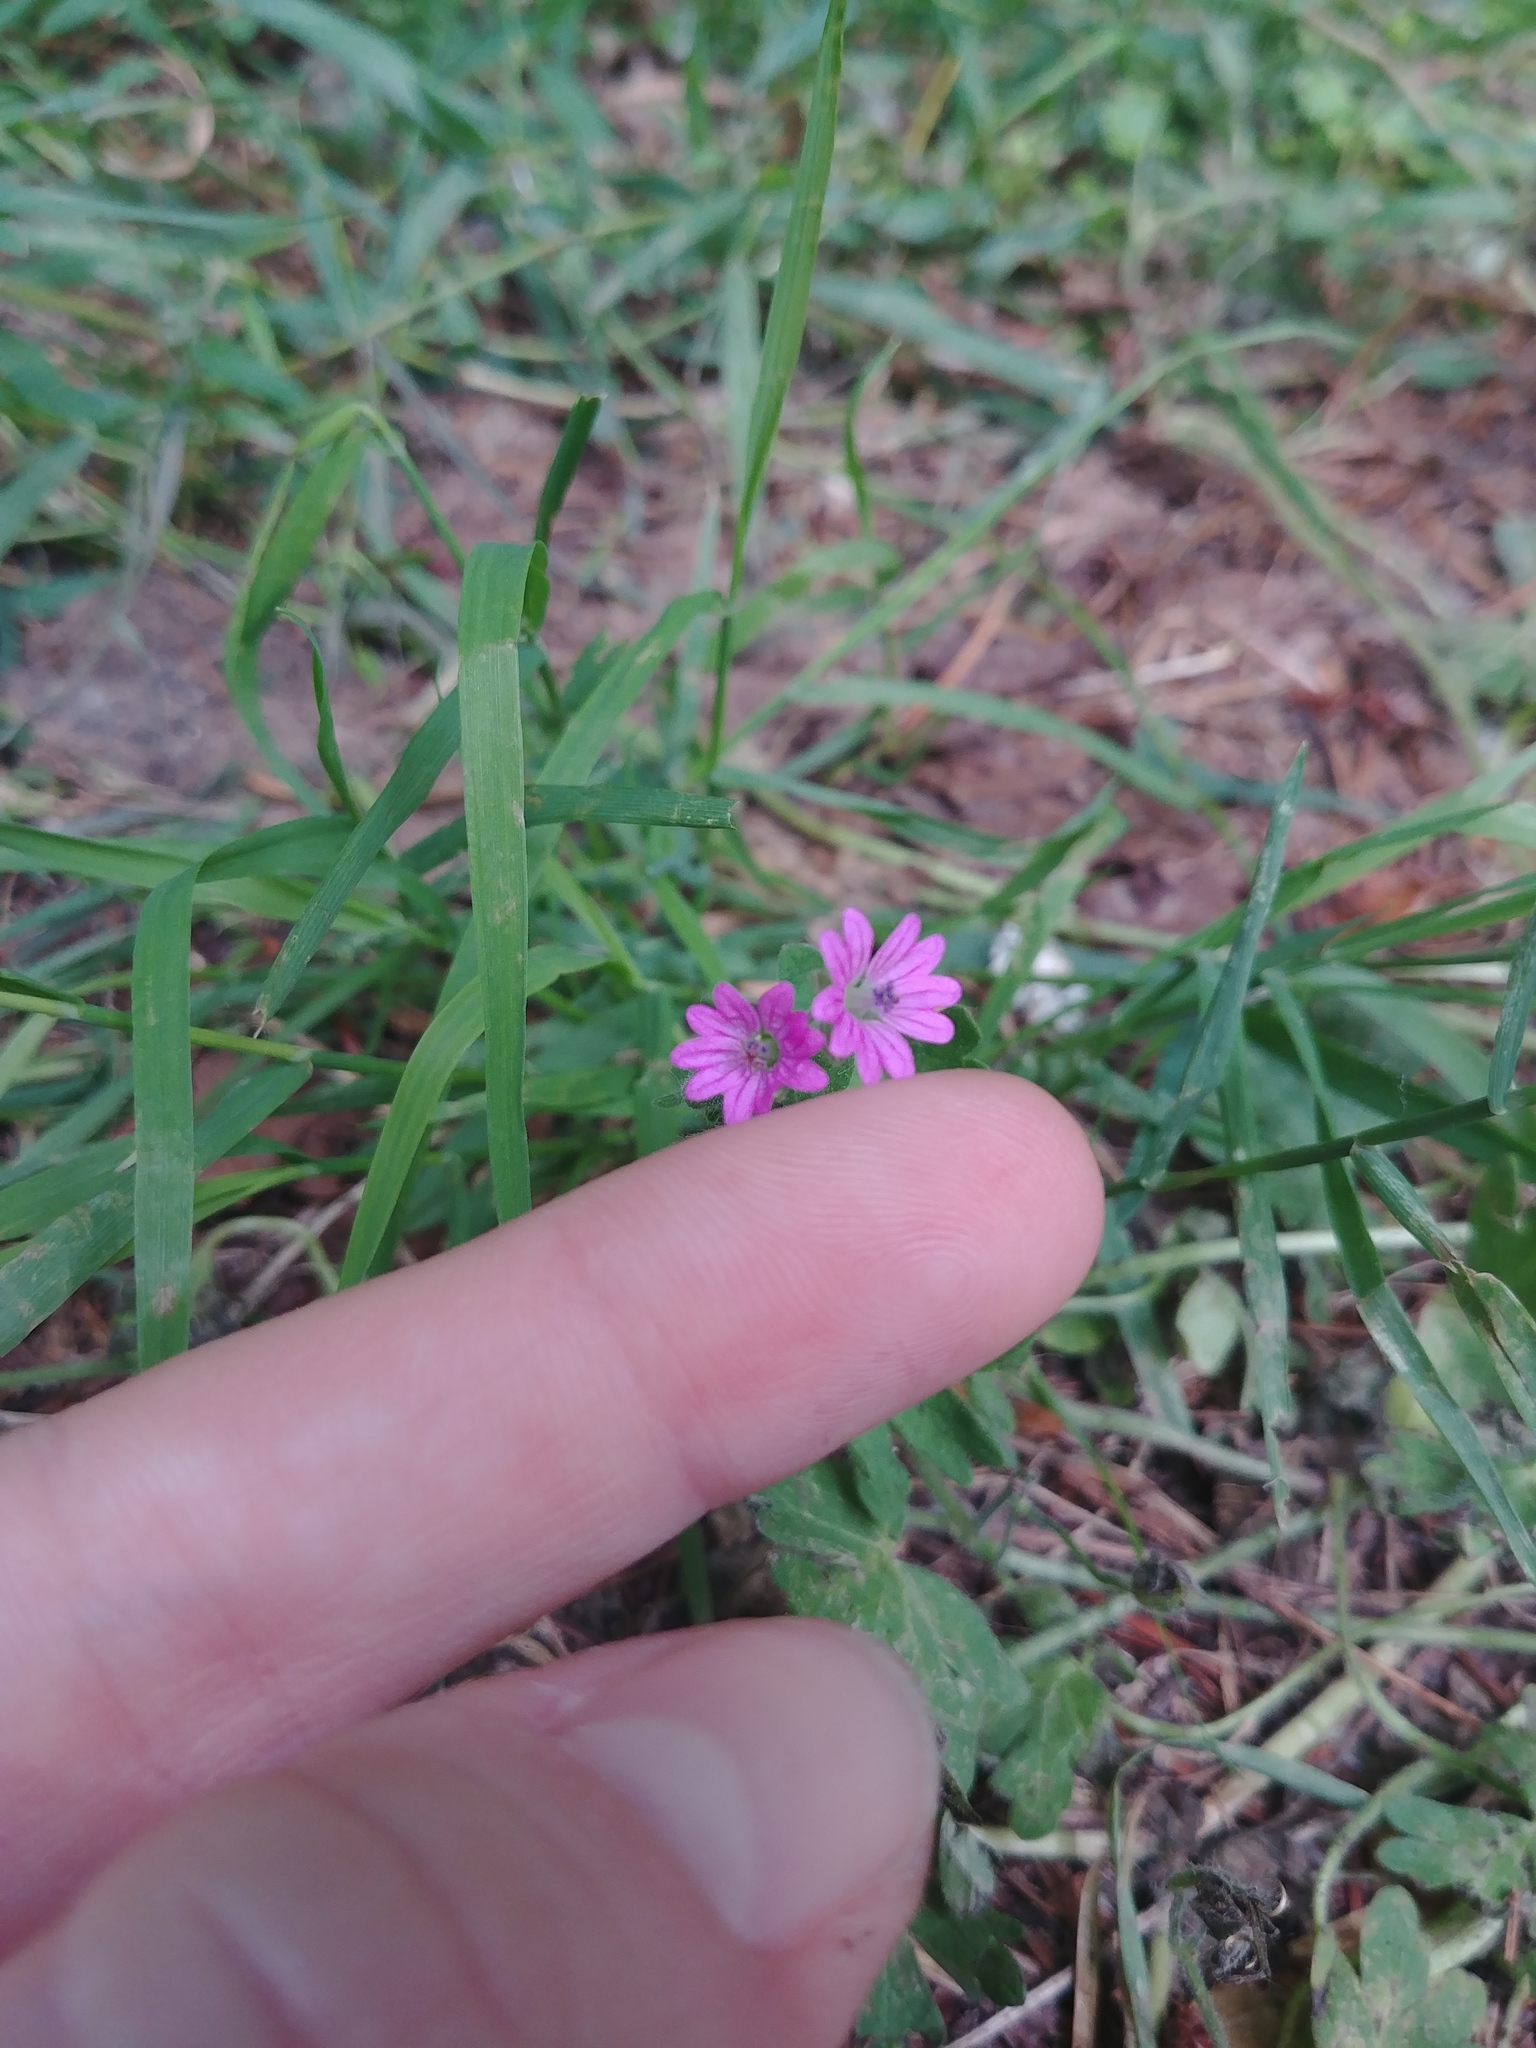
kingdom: Plantae
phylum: Tracheophyta
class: Magnoliopsida
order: Geraniales
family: Geraniaceae
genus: Geranium
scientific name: Geranium molle
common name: Dove's-foot crane's-bill
